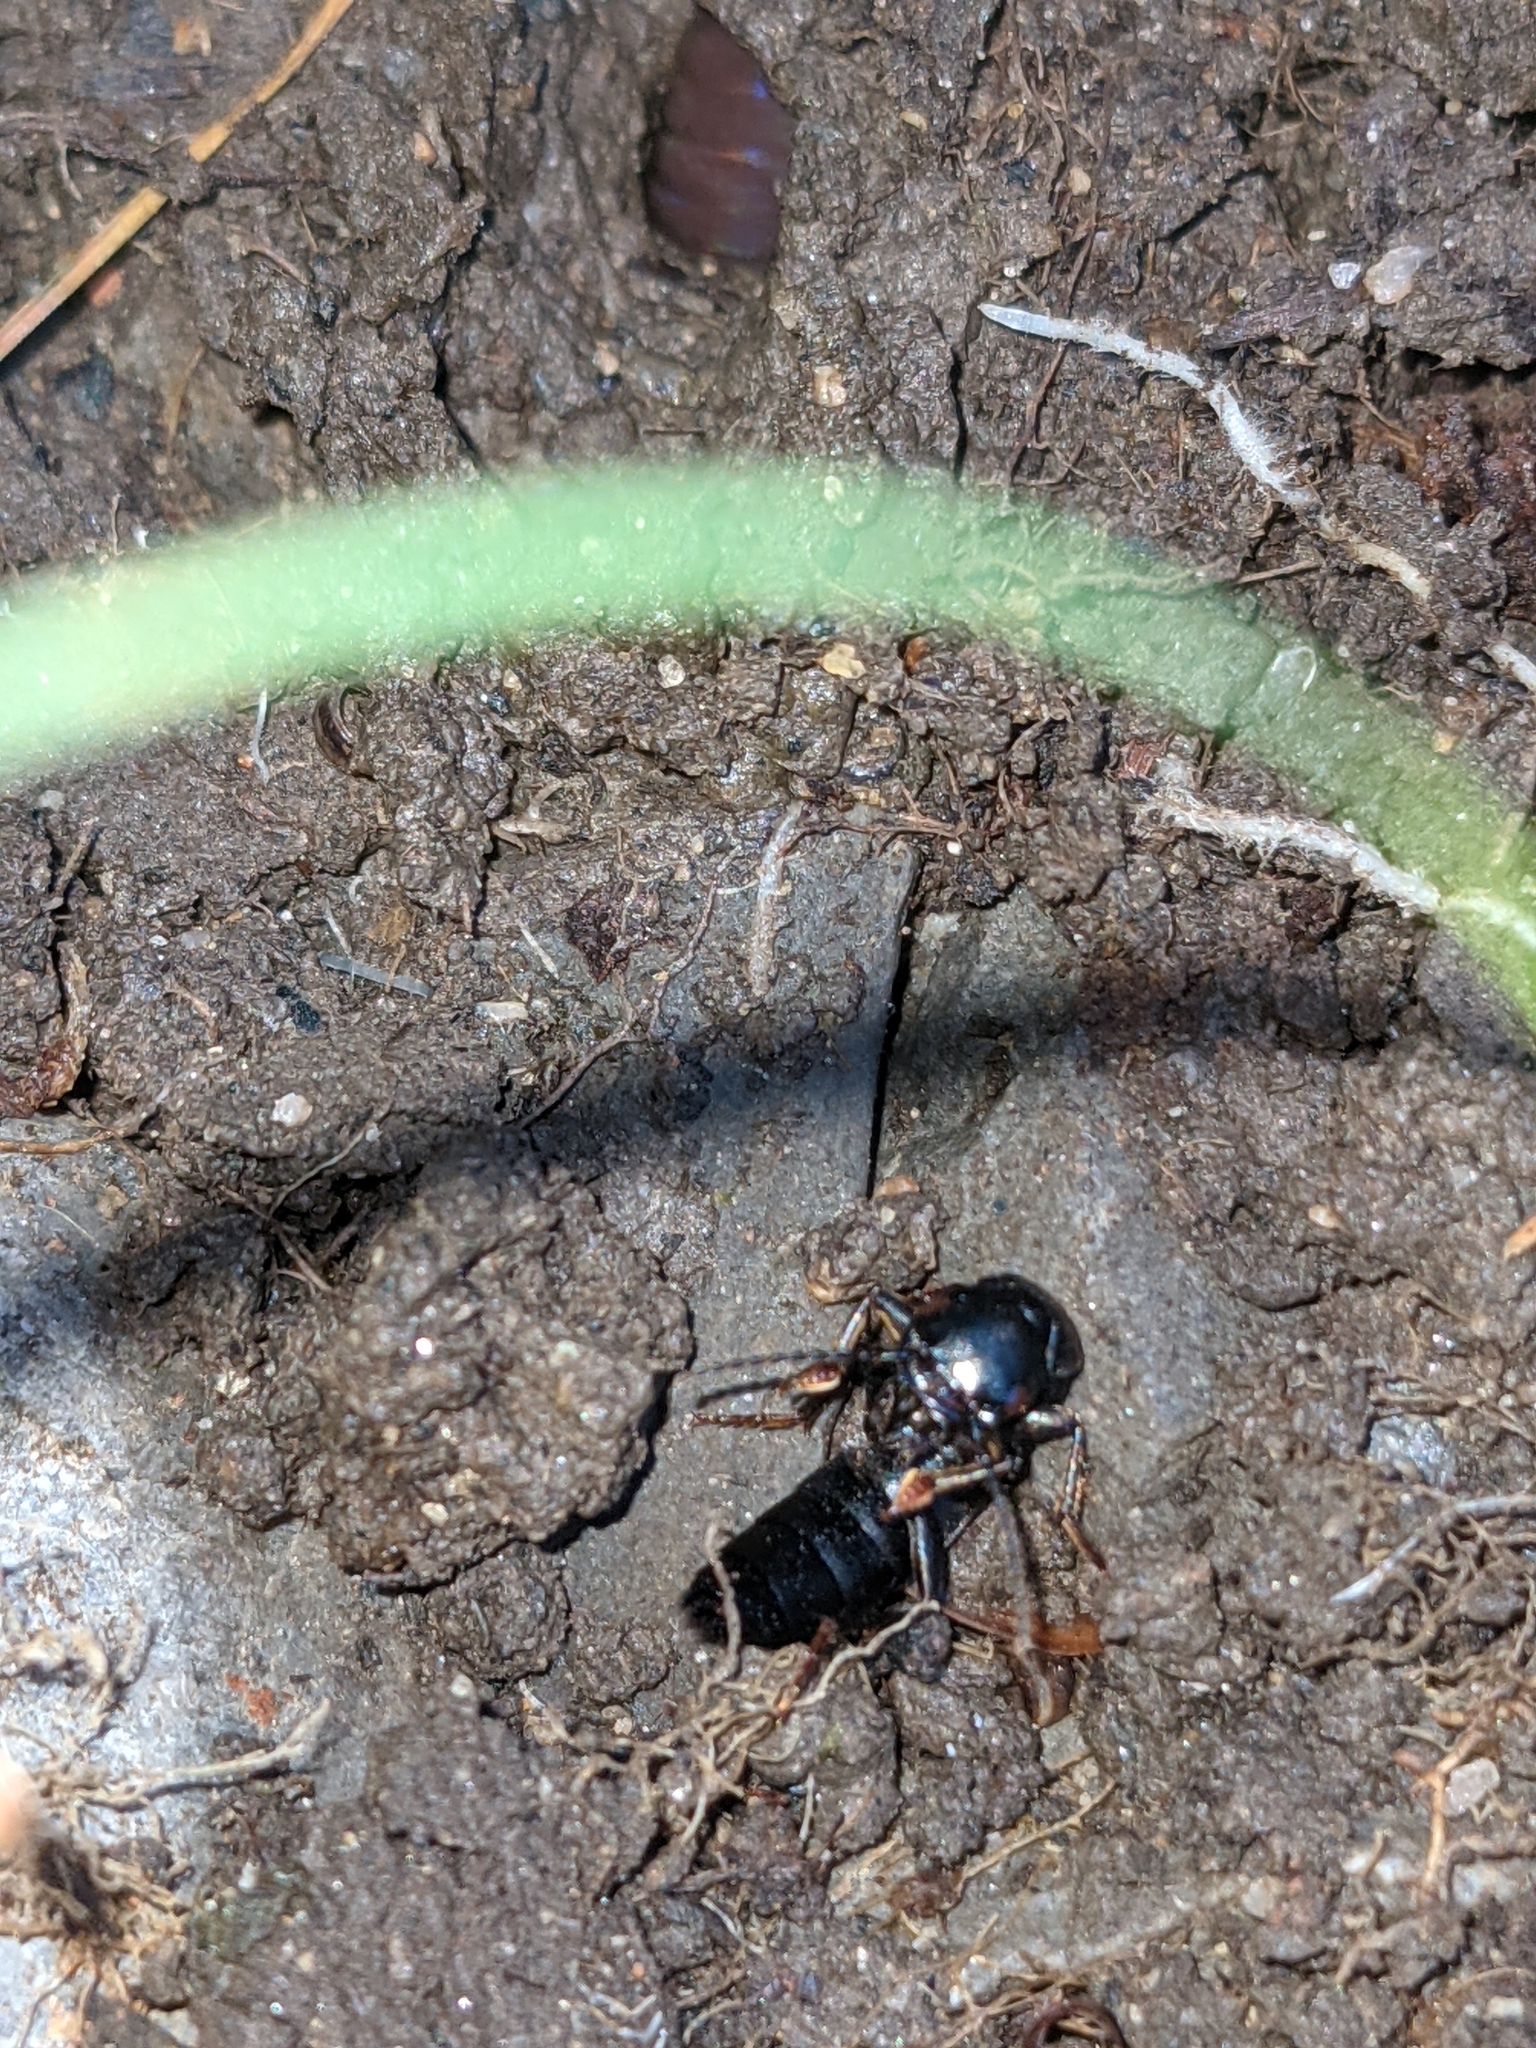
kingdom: Animalia
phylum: Arthropoda
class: Insecta
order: Coleoptera
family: Staphylinidae
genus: Tasgius
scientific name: Tasgius melanarius
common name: Rove beetle
